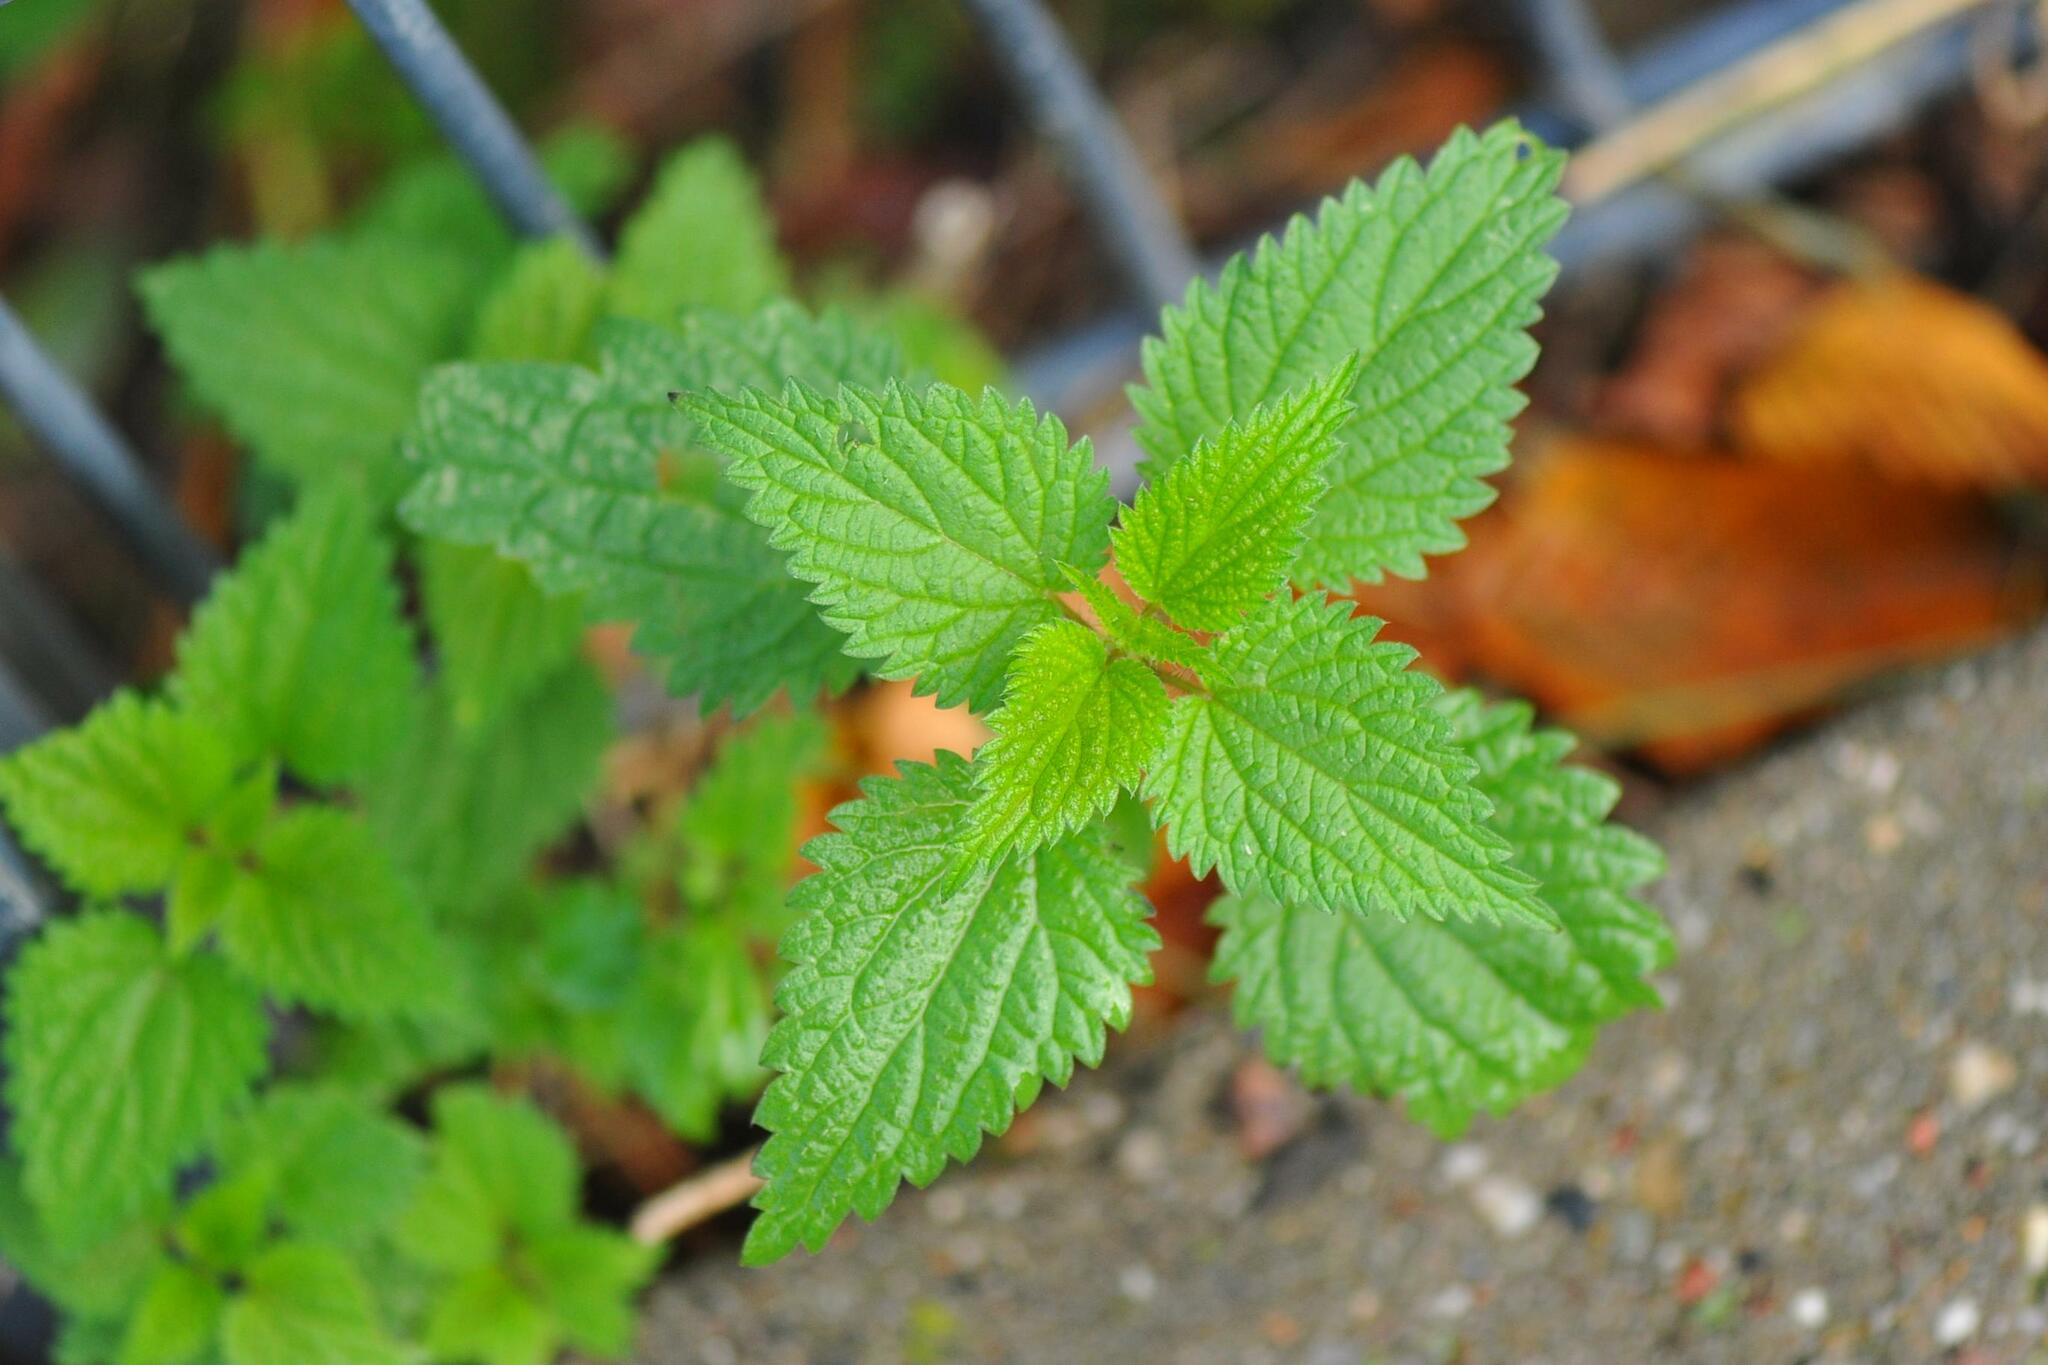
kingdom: Plantae
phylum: Tracheophyta
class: Magnoliopsida
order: Rosales
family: Urticaceae
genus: Urtica
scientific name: Urtica dioica
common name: Common nettle
